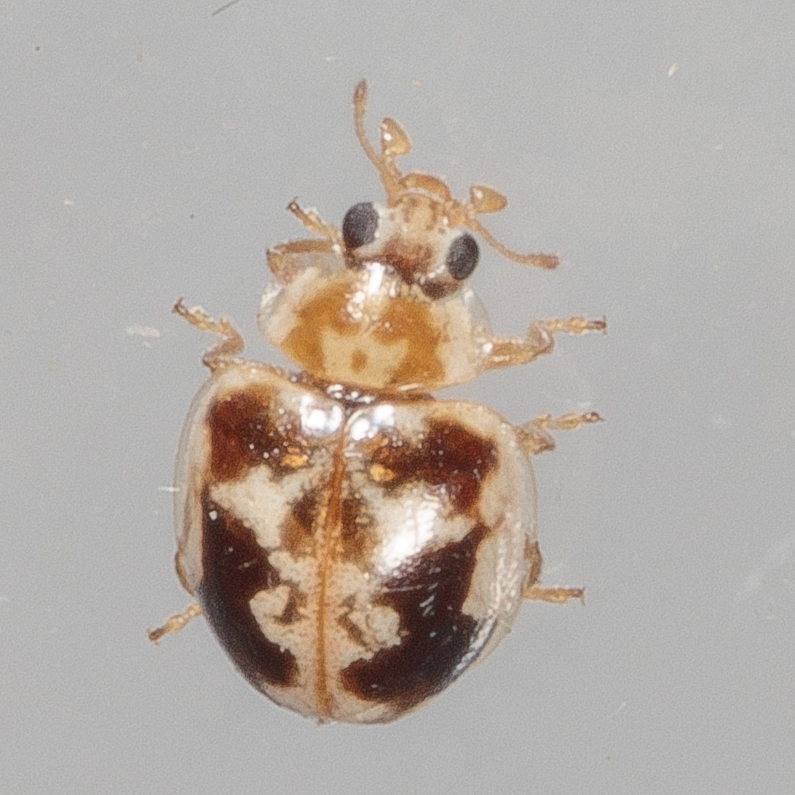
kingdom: Animalia
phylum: Arthropoda
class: Insecta
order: Coleoptera
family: Coccinellidae
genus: Psyllobora
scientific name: Psyllobora renifer
